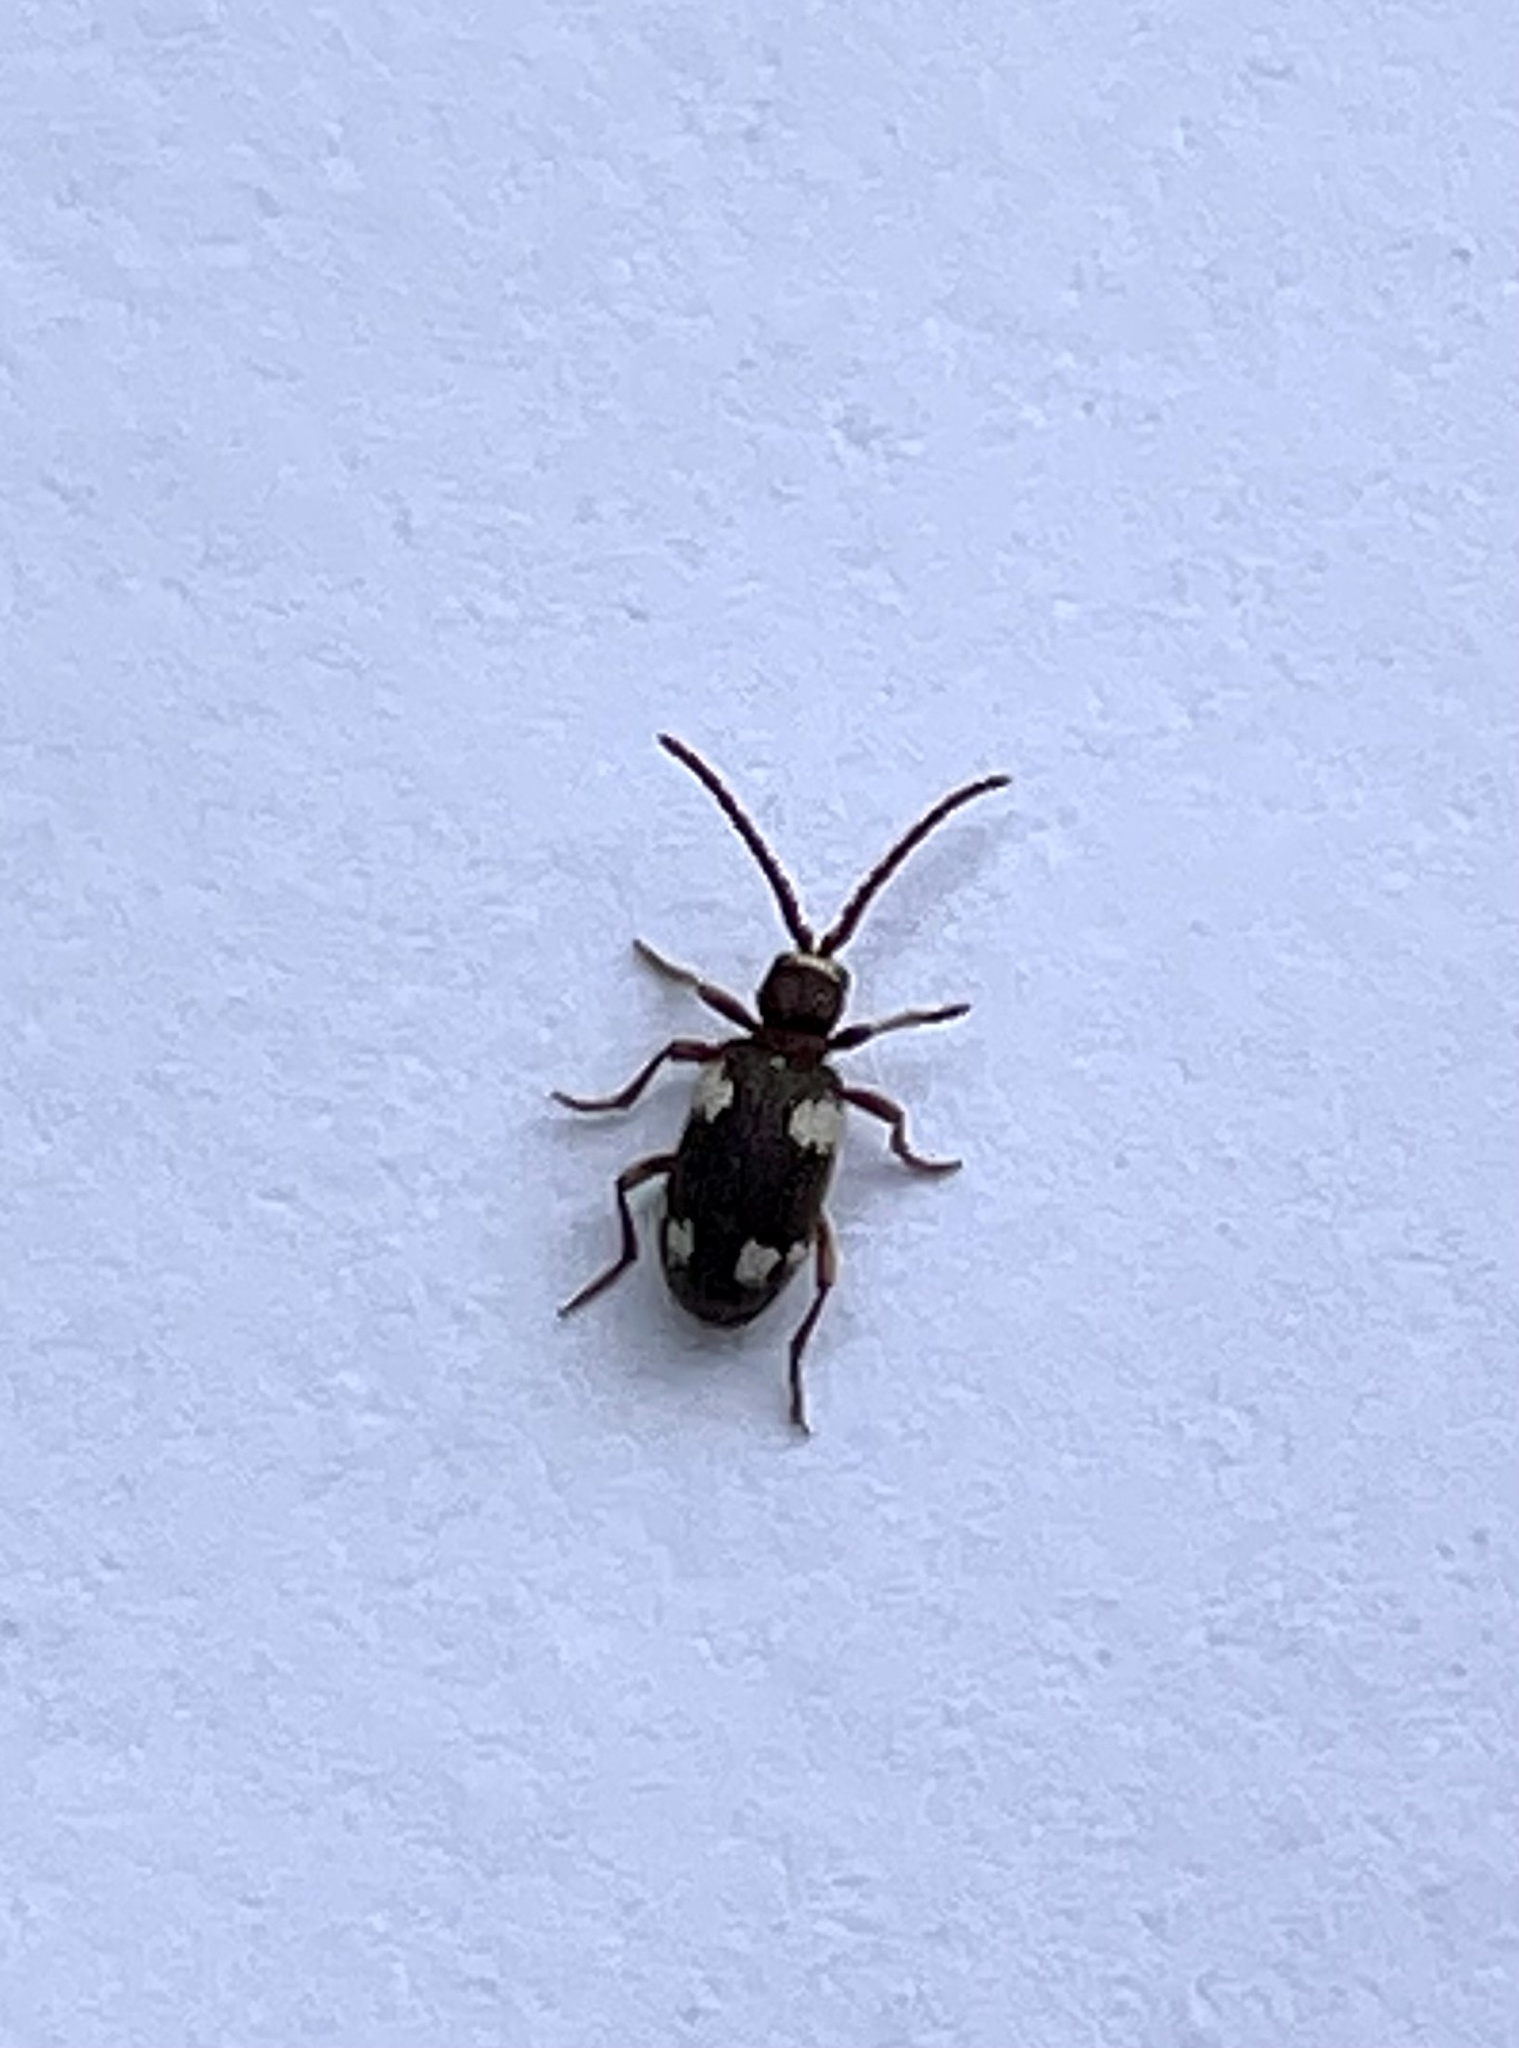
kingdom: Animalia
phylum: Arthropoda
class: Insecta
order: Coleoptera
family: Ptinidae
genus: Ptinus
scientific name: Ptinus sexpunctatus
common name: Six-spotted spider beetle
